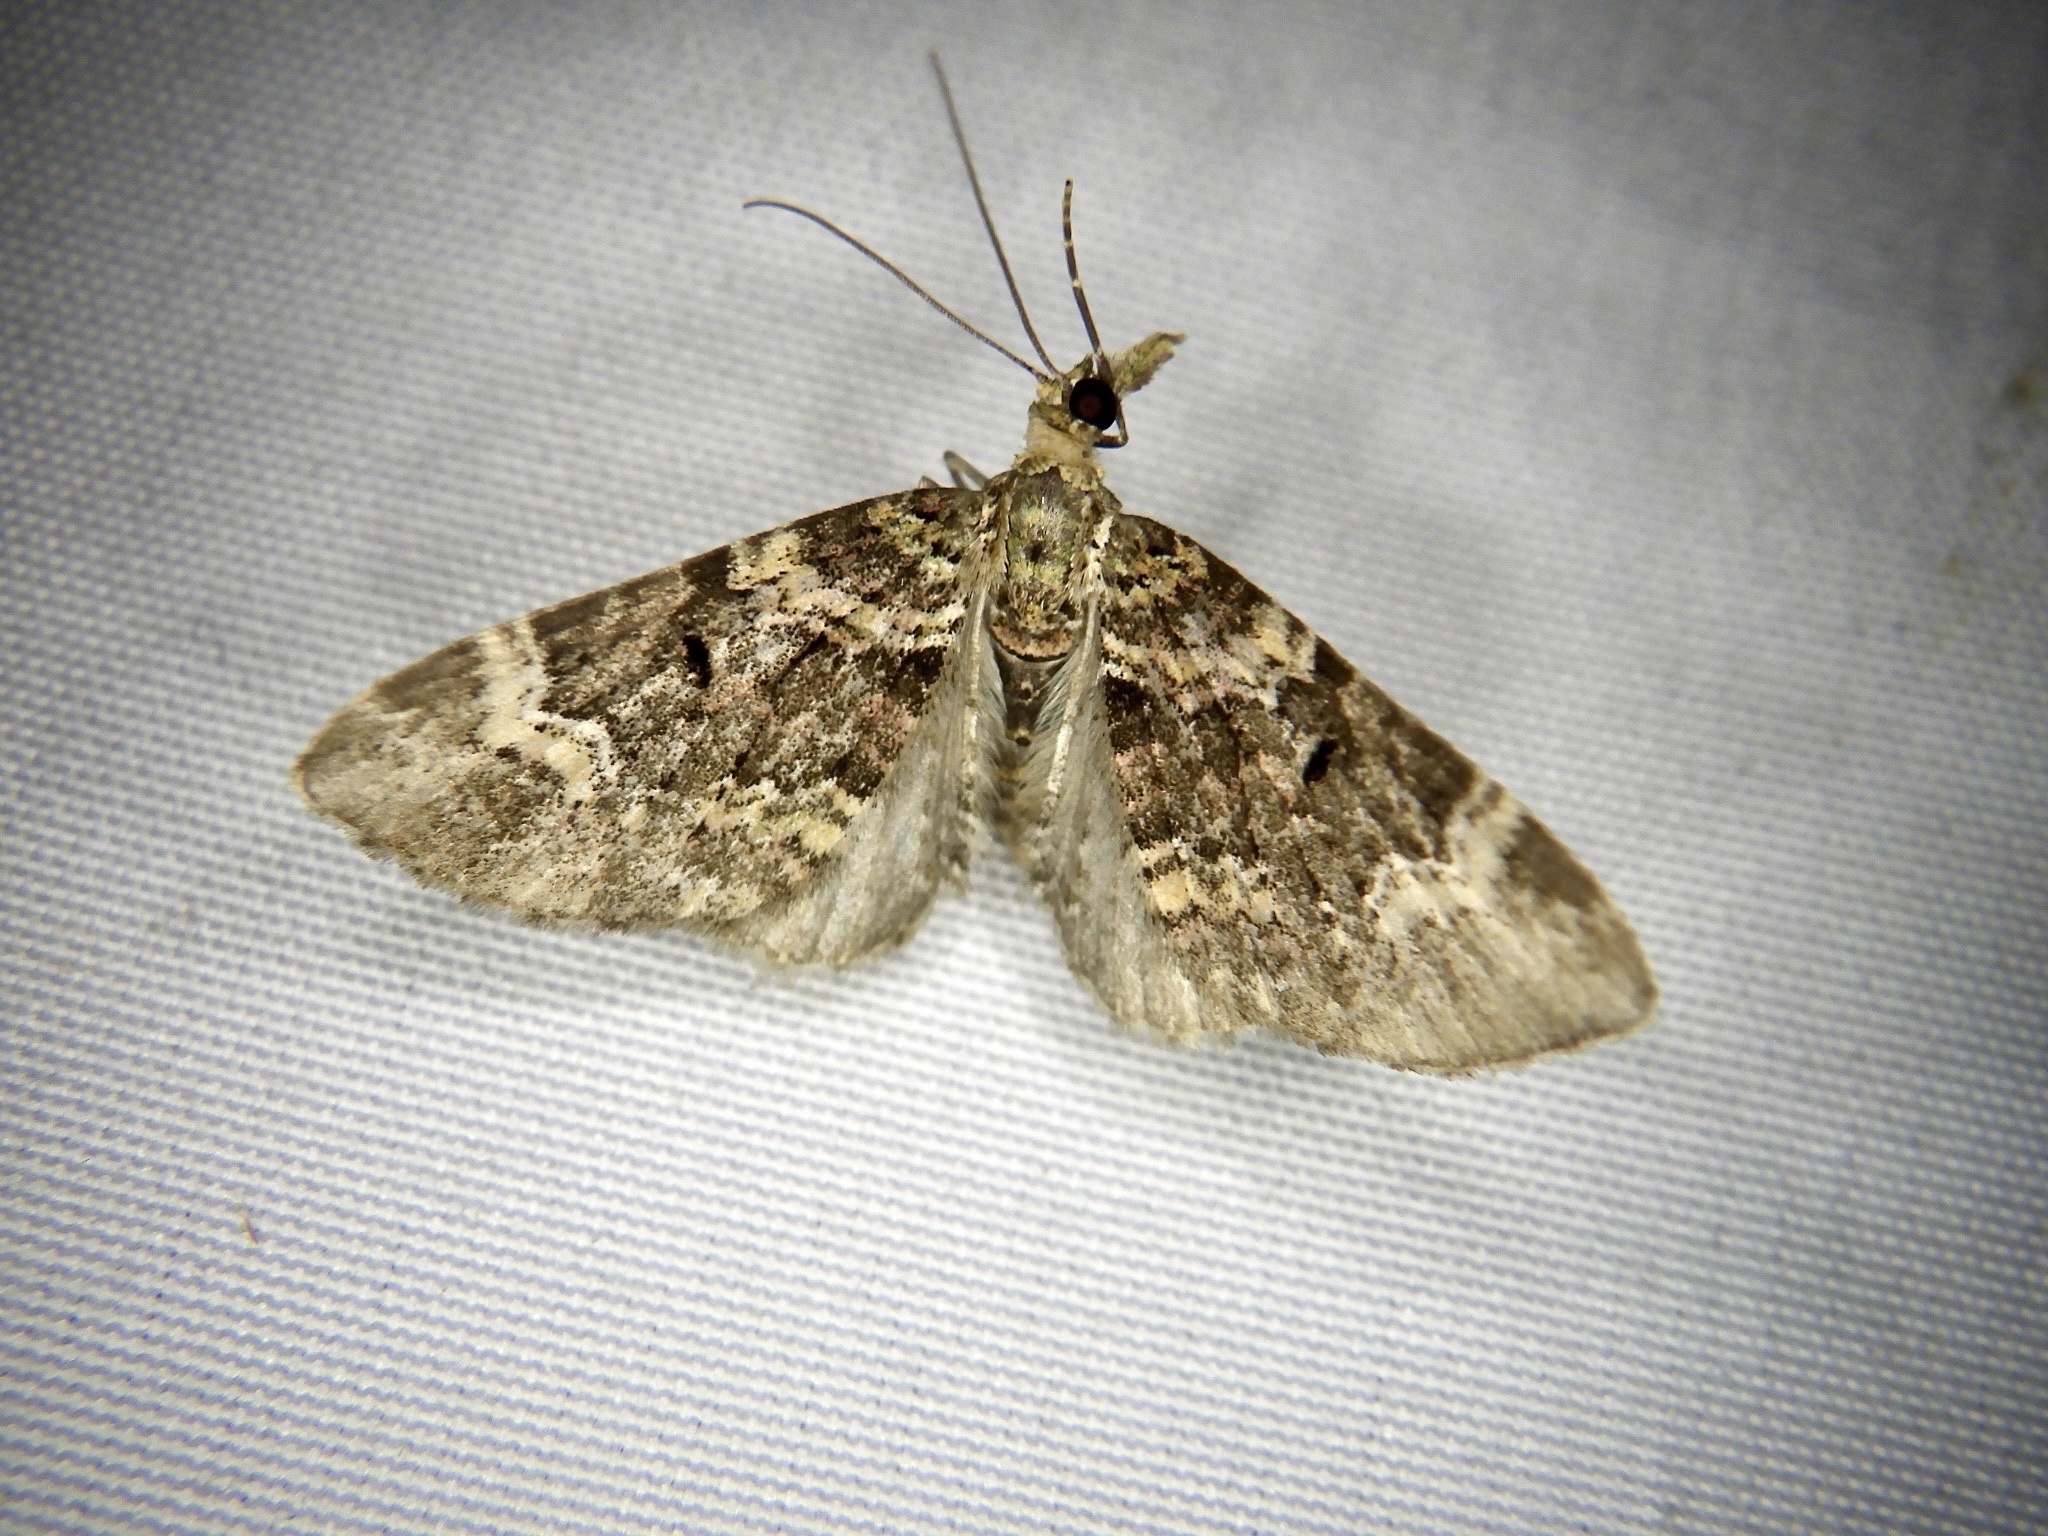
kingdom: Animalia
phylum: Arthropoda
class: Insecta
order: Lepidoptera
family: Geometridae
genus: Chloroclystis
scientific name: Chloroclystis
